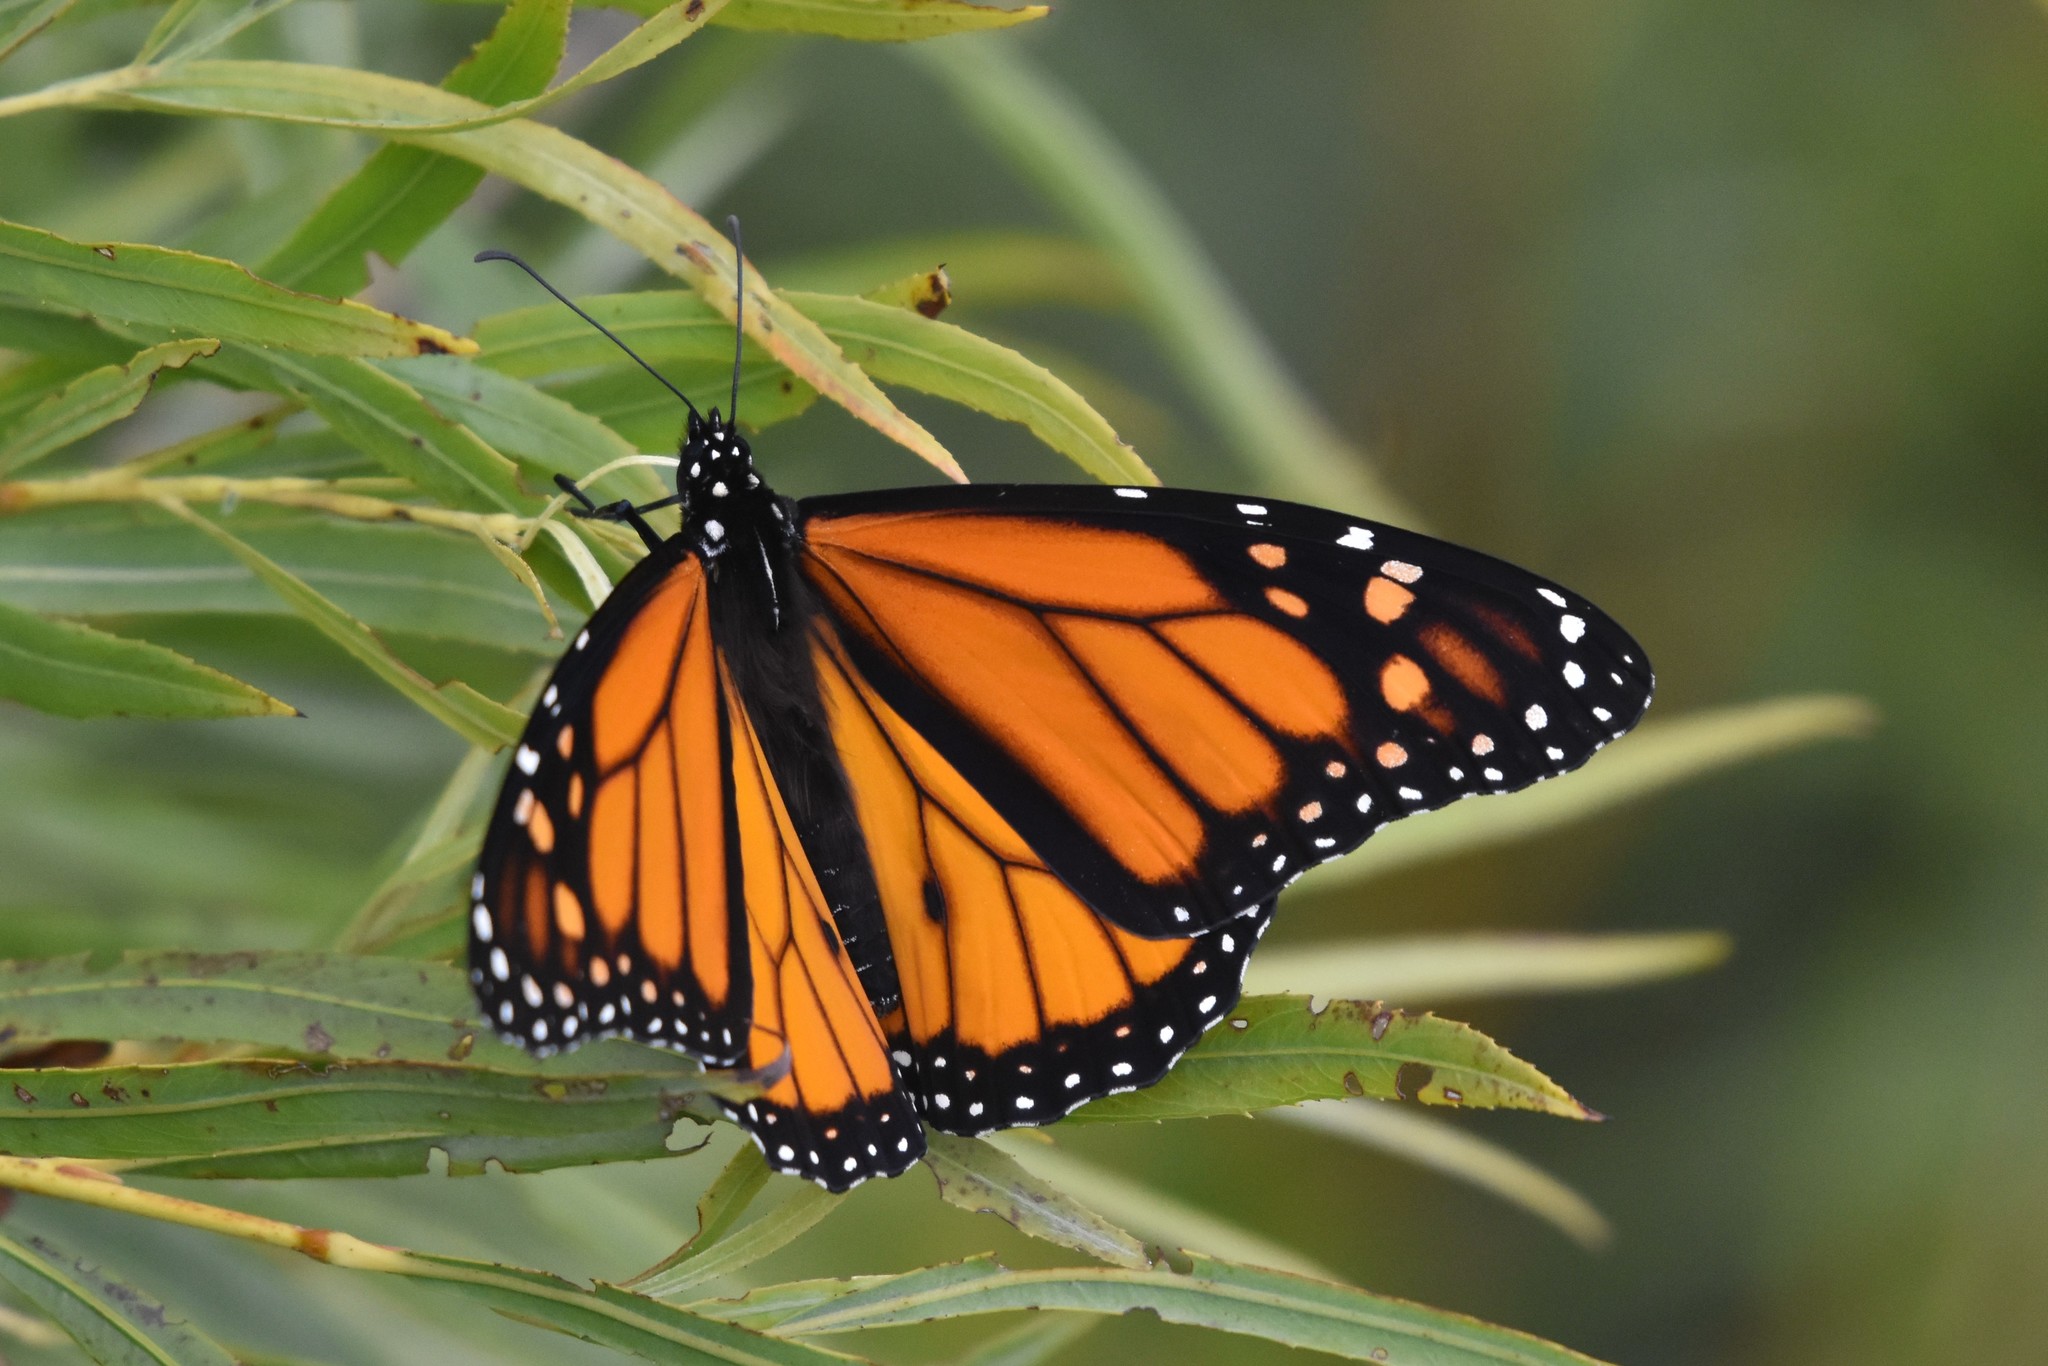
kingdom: Animalia
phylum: Arthropoda
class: Insecta
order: Lepidoptera
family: Nymphalidae
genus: Danaus
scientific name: Danaus plexippus
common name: Monarch
